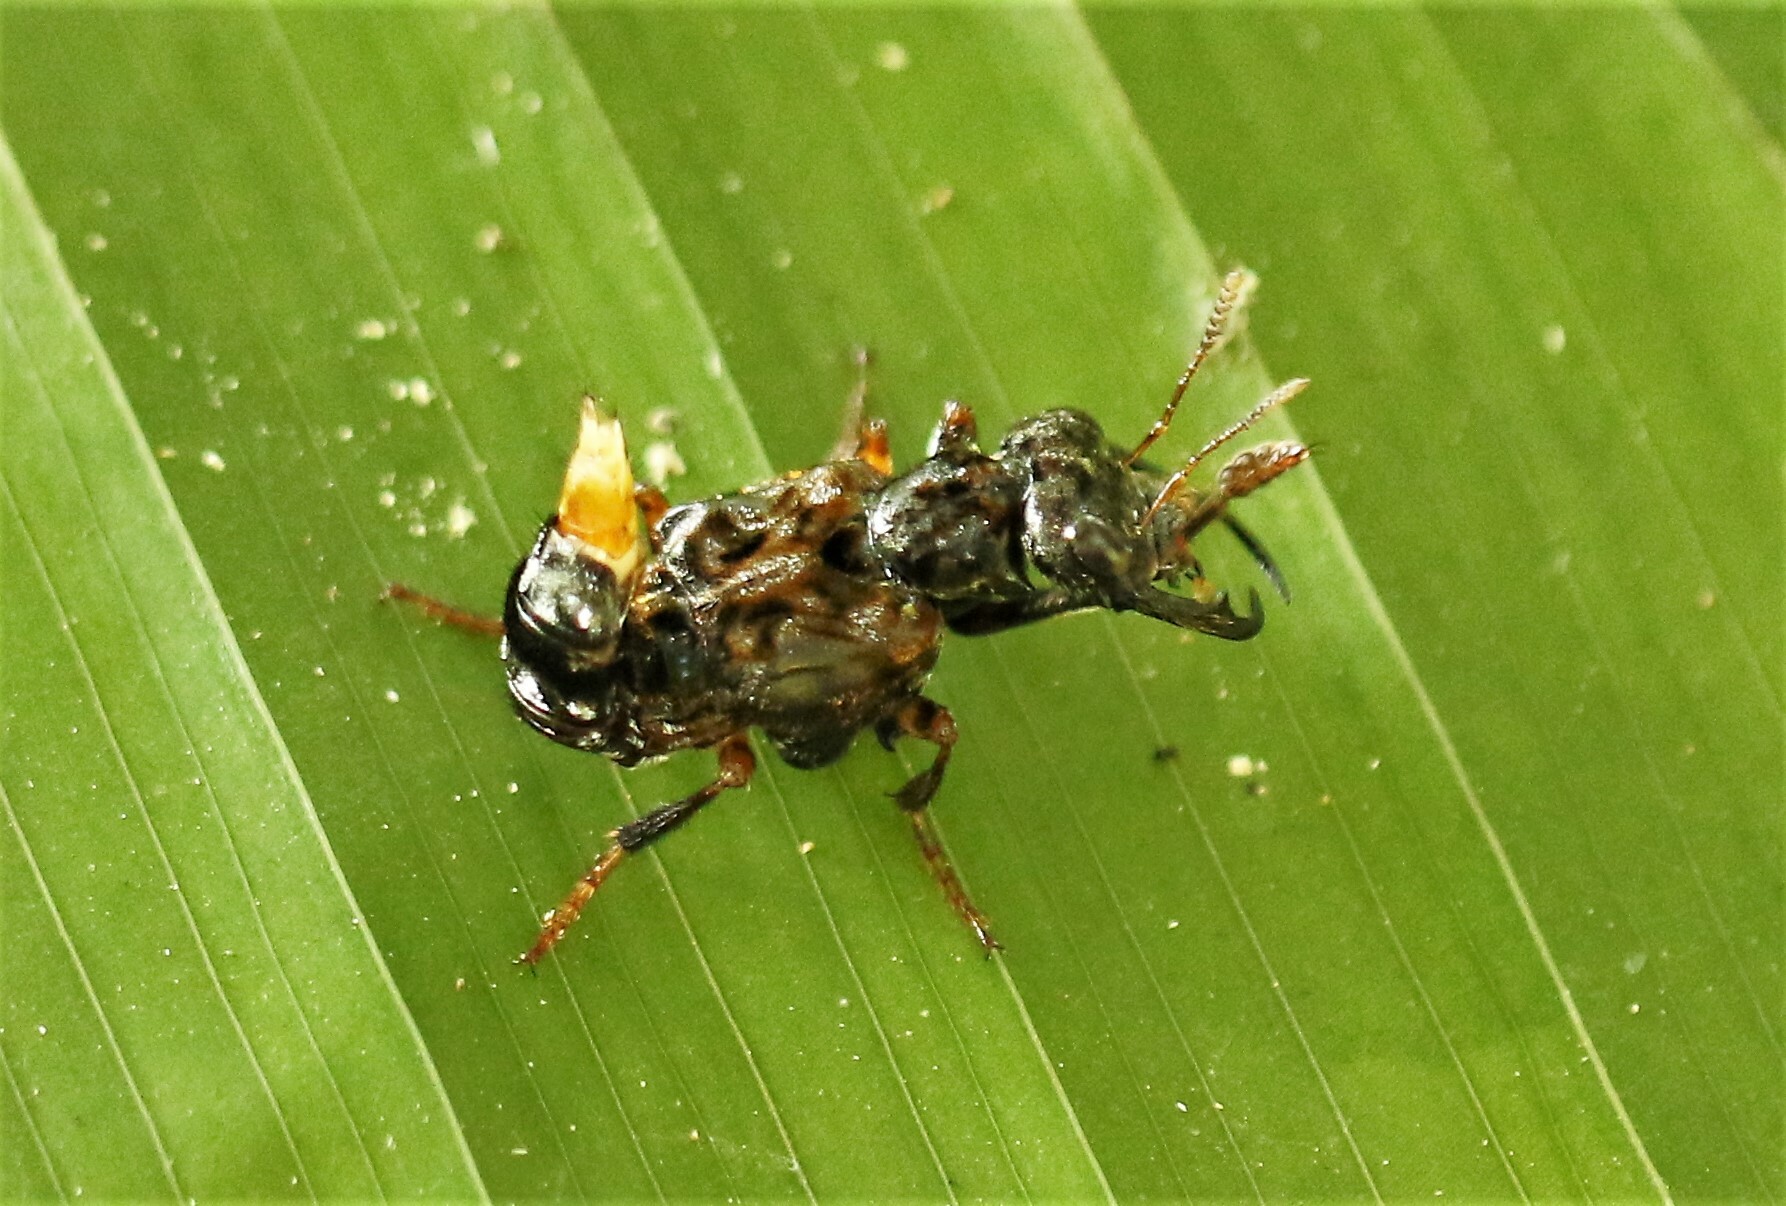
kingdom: Animalia
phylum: Arthropoda
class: Insecta
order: Coleoptera
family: Staphylinidae
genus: Leistotrophus
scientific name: Leistotrophus versicolor
